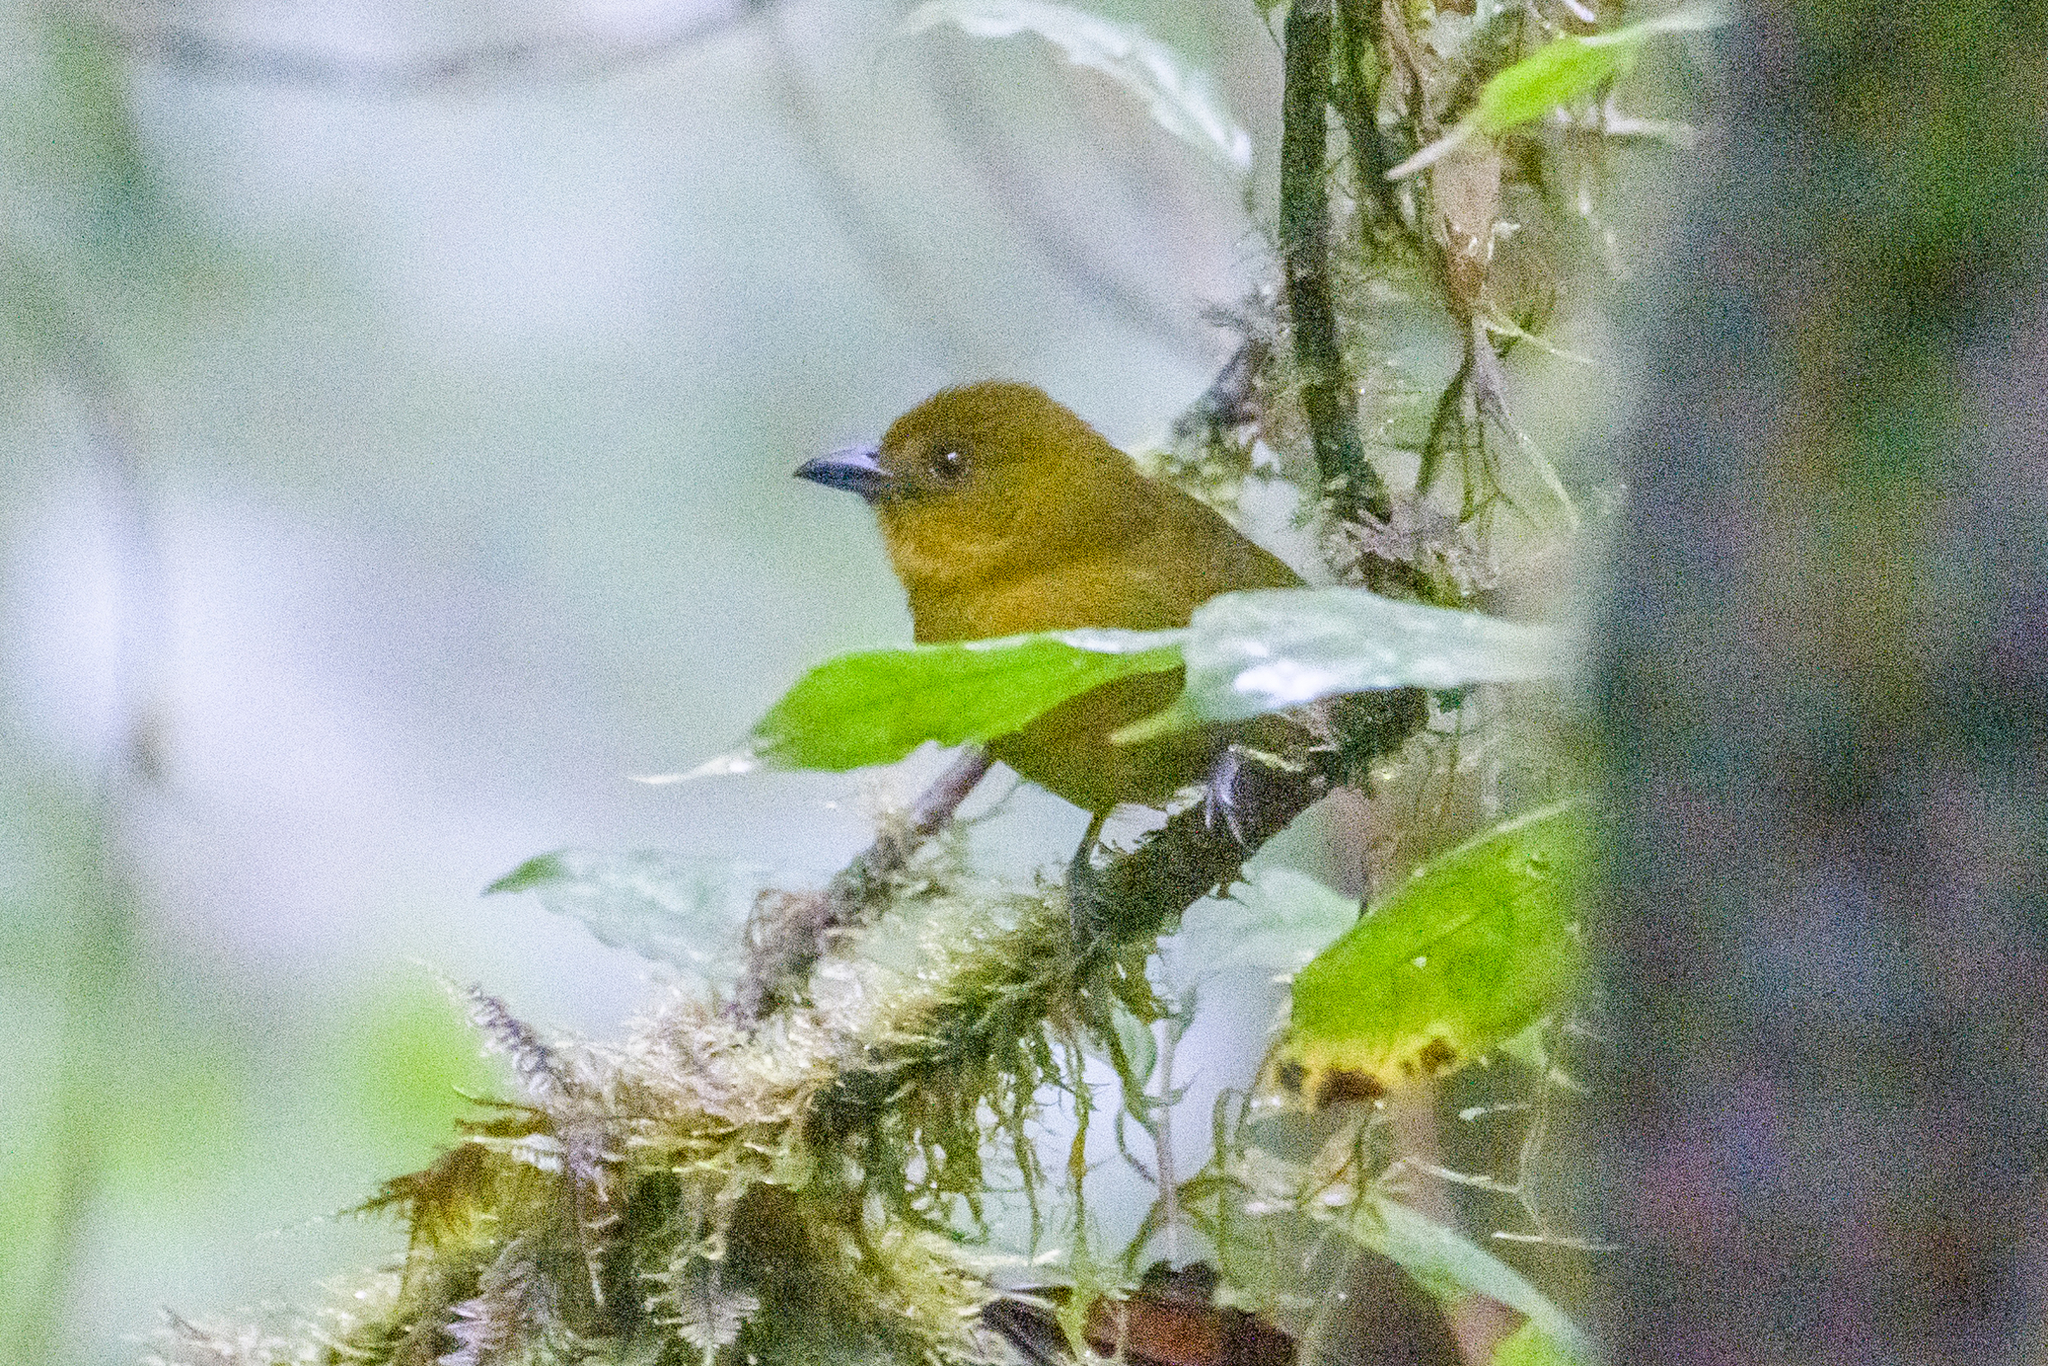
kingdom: Animalia
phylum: Chordata
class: Aves
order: Passeriformes
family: Cardinalidae
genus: Chlorothraupis
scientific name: Chlorothraupis carmioli
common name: Carmiol's tanager
